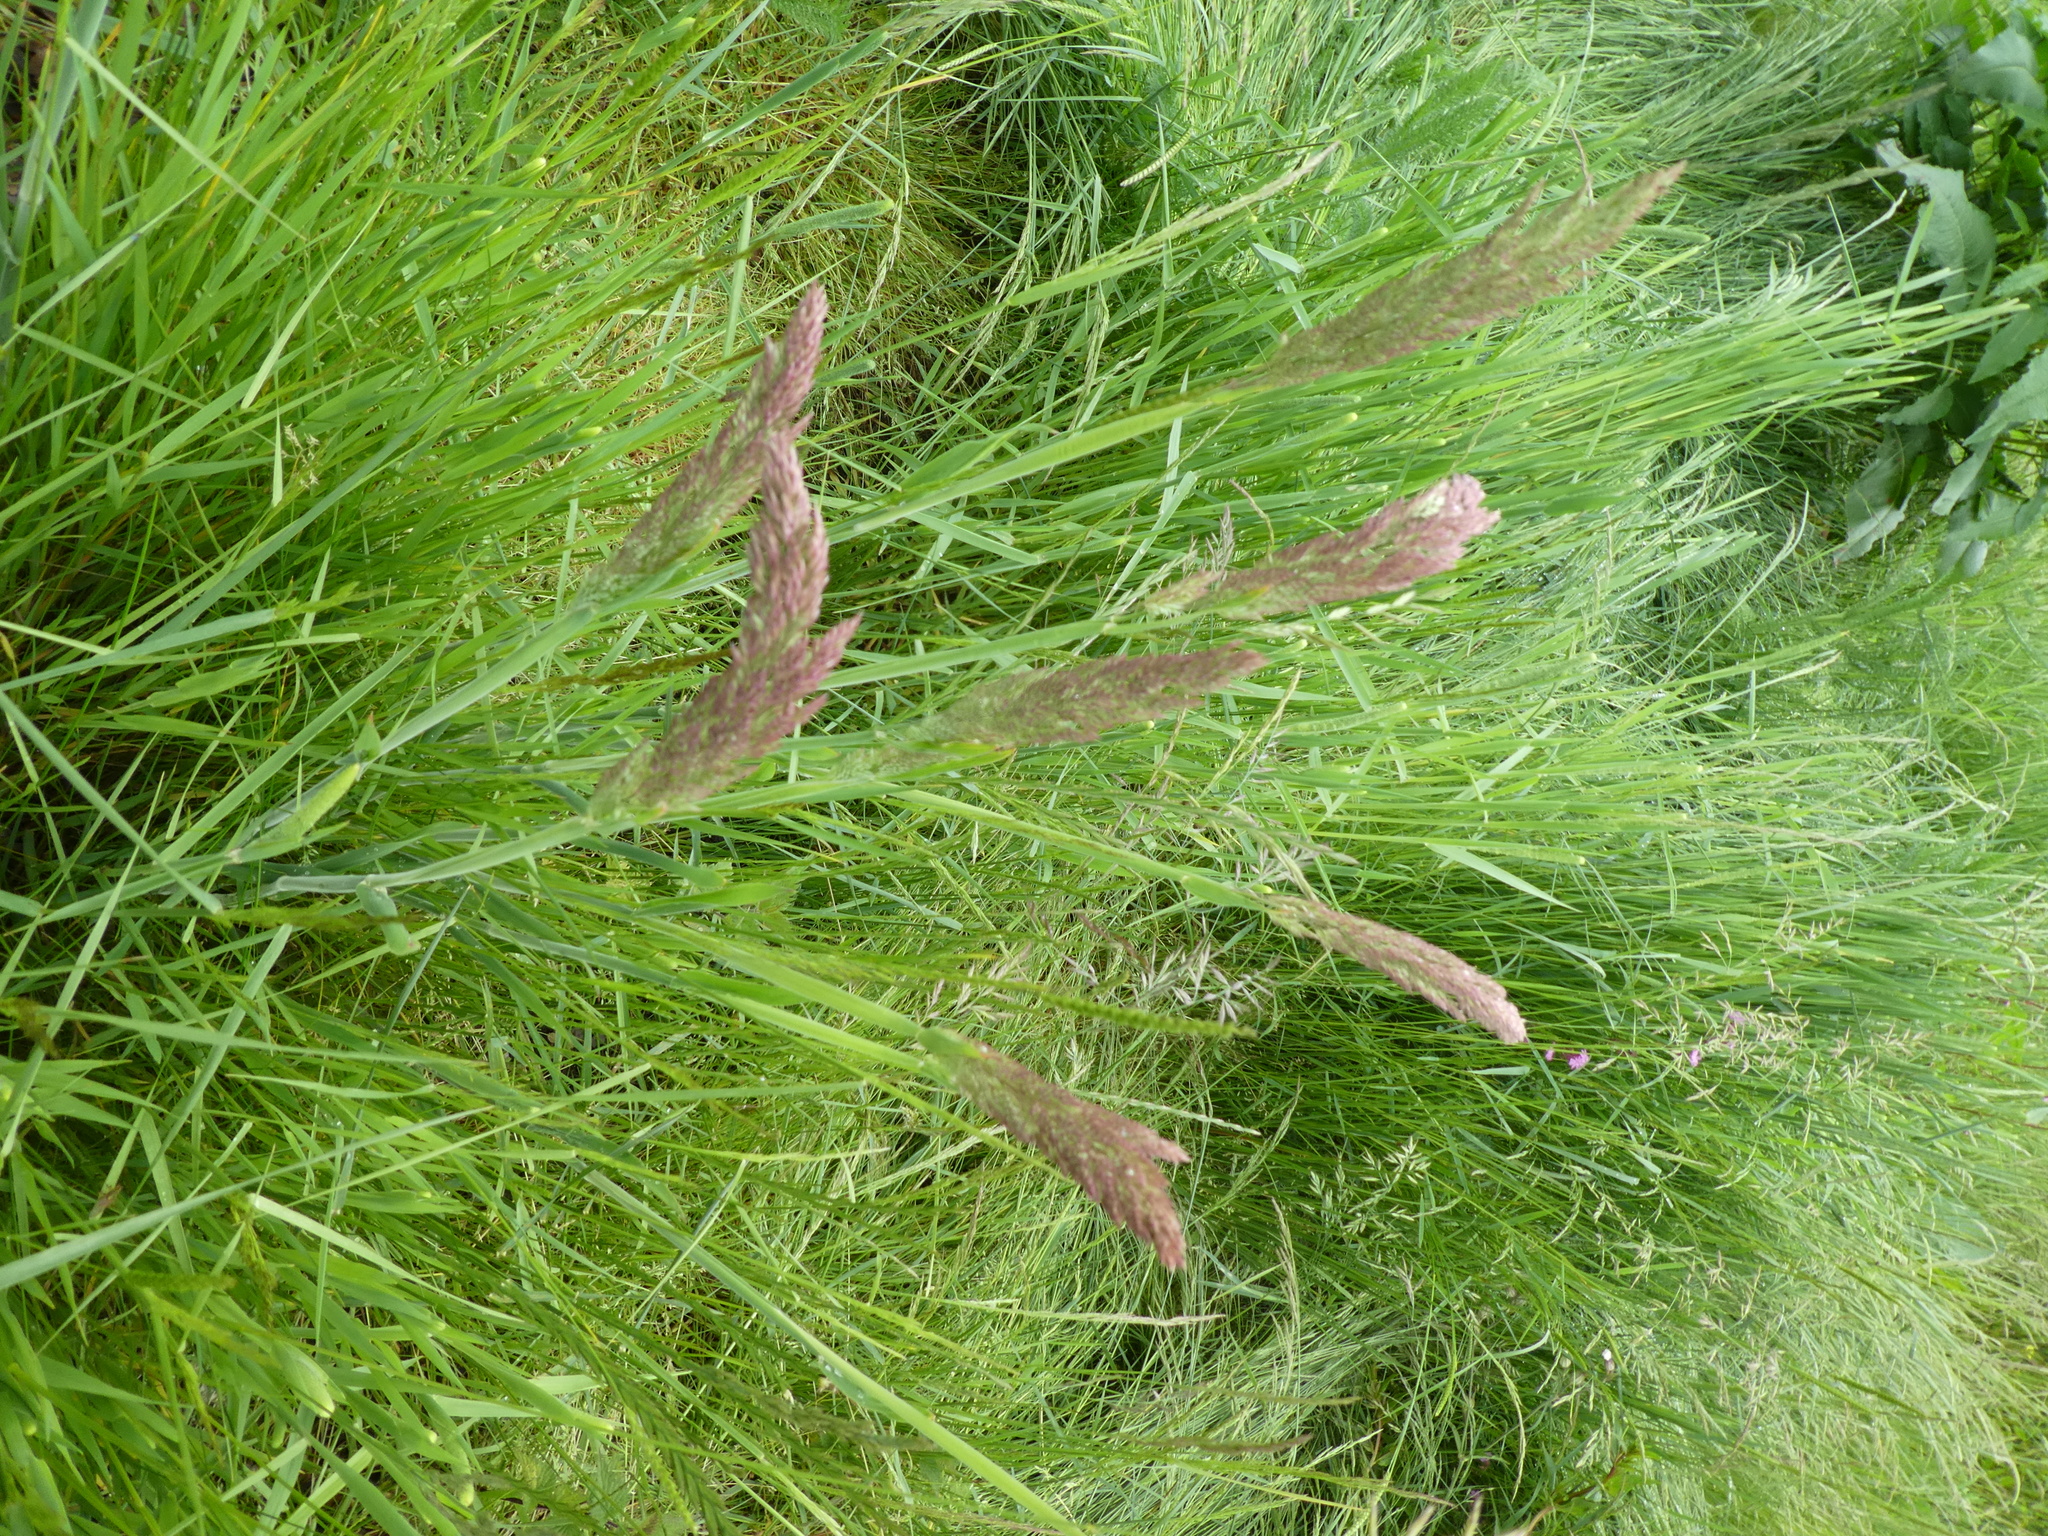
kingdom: Plantae
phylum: Tracheophyta
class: Liliopsida
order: Poales
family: Poaceae
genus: Holcus
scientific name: Holcus lanatus
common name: Yorkshire-fog
